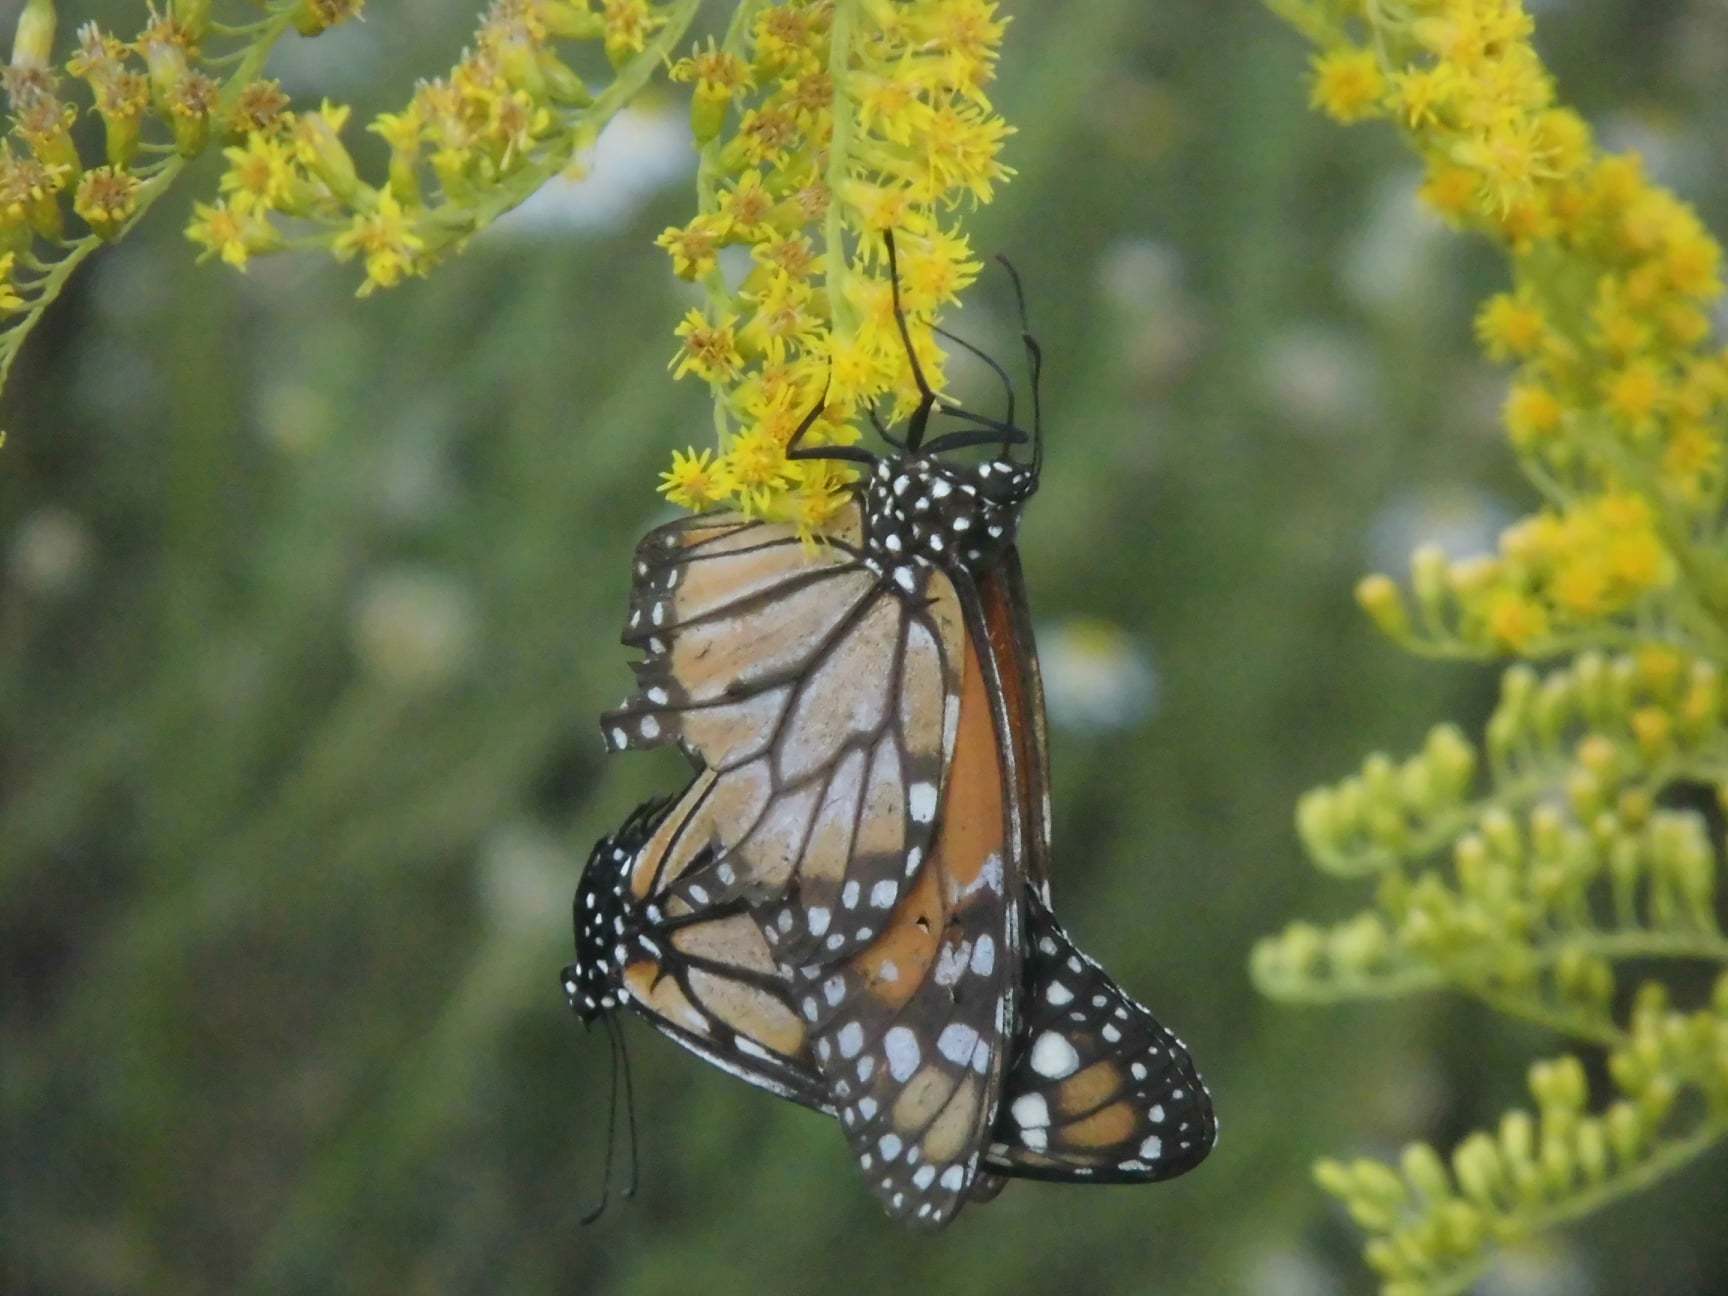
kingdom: Animalia
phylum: Arthropoda
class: Insecta
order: Lepidoptera
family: Nymphalidae
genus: Danaus
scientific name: Danaus erippus
